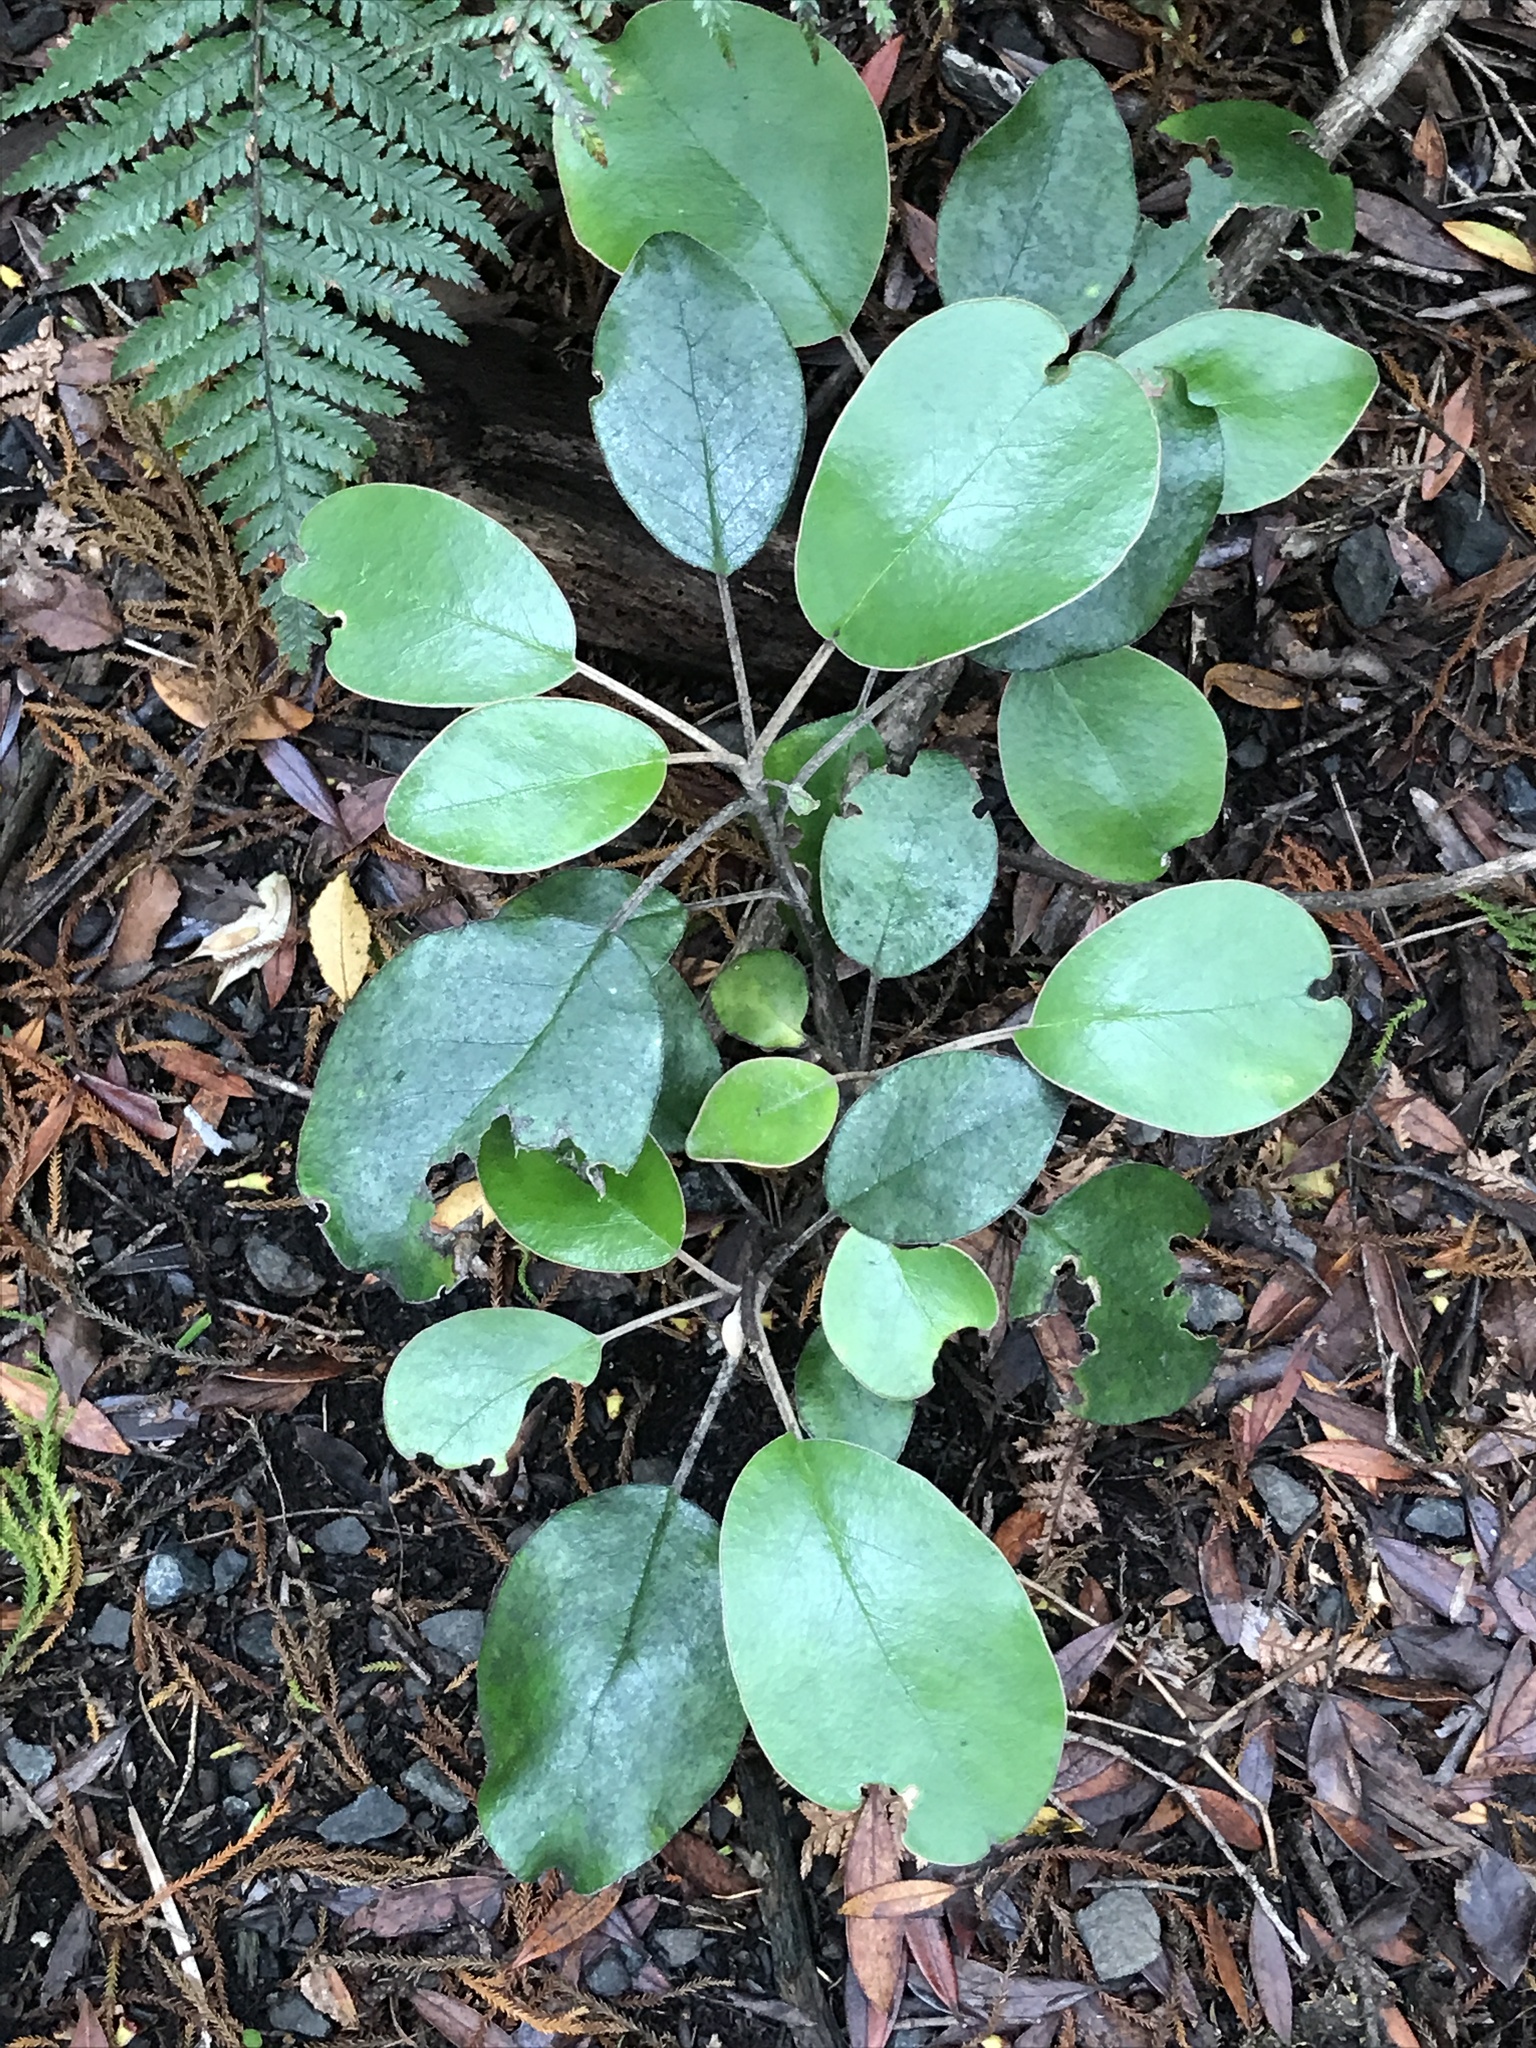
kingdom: Plantae
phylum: Tracheophyta
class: Magnoliopsida
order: Asterales
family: Asteraceae
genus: Brachyglottis
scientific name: Brachyglottis rotundifolia
